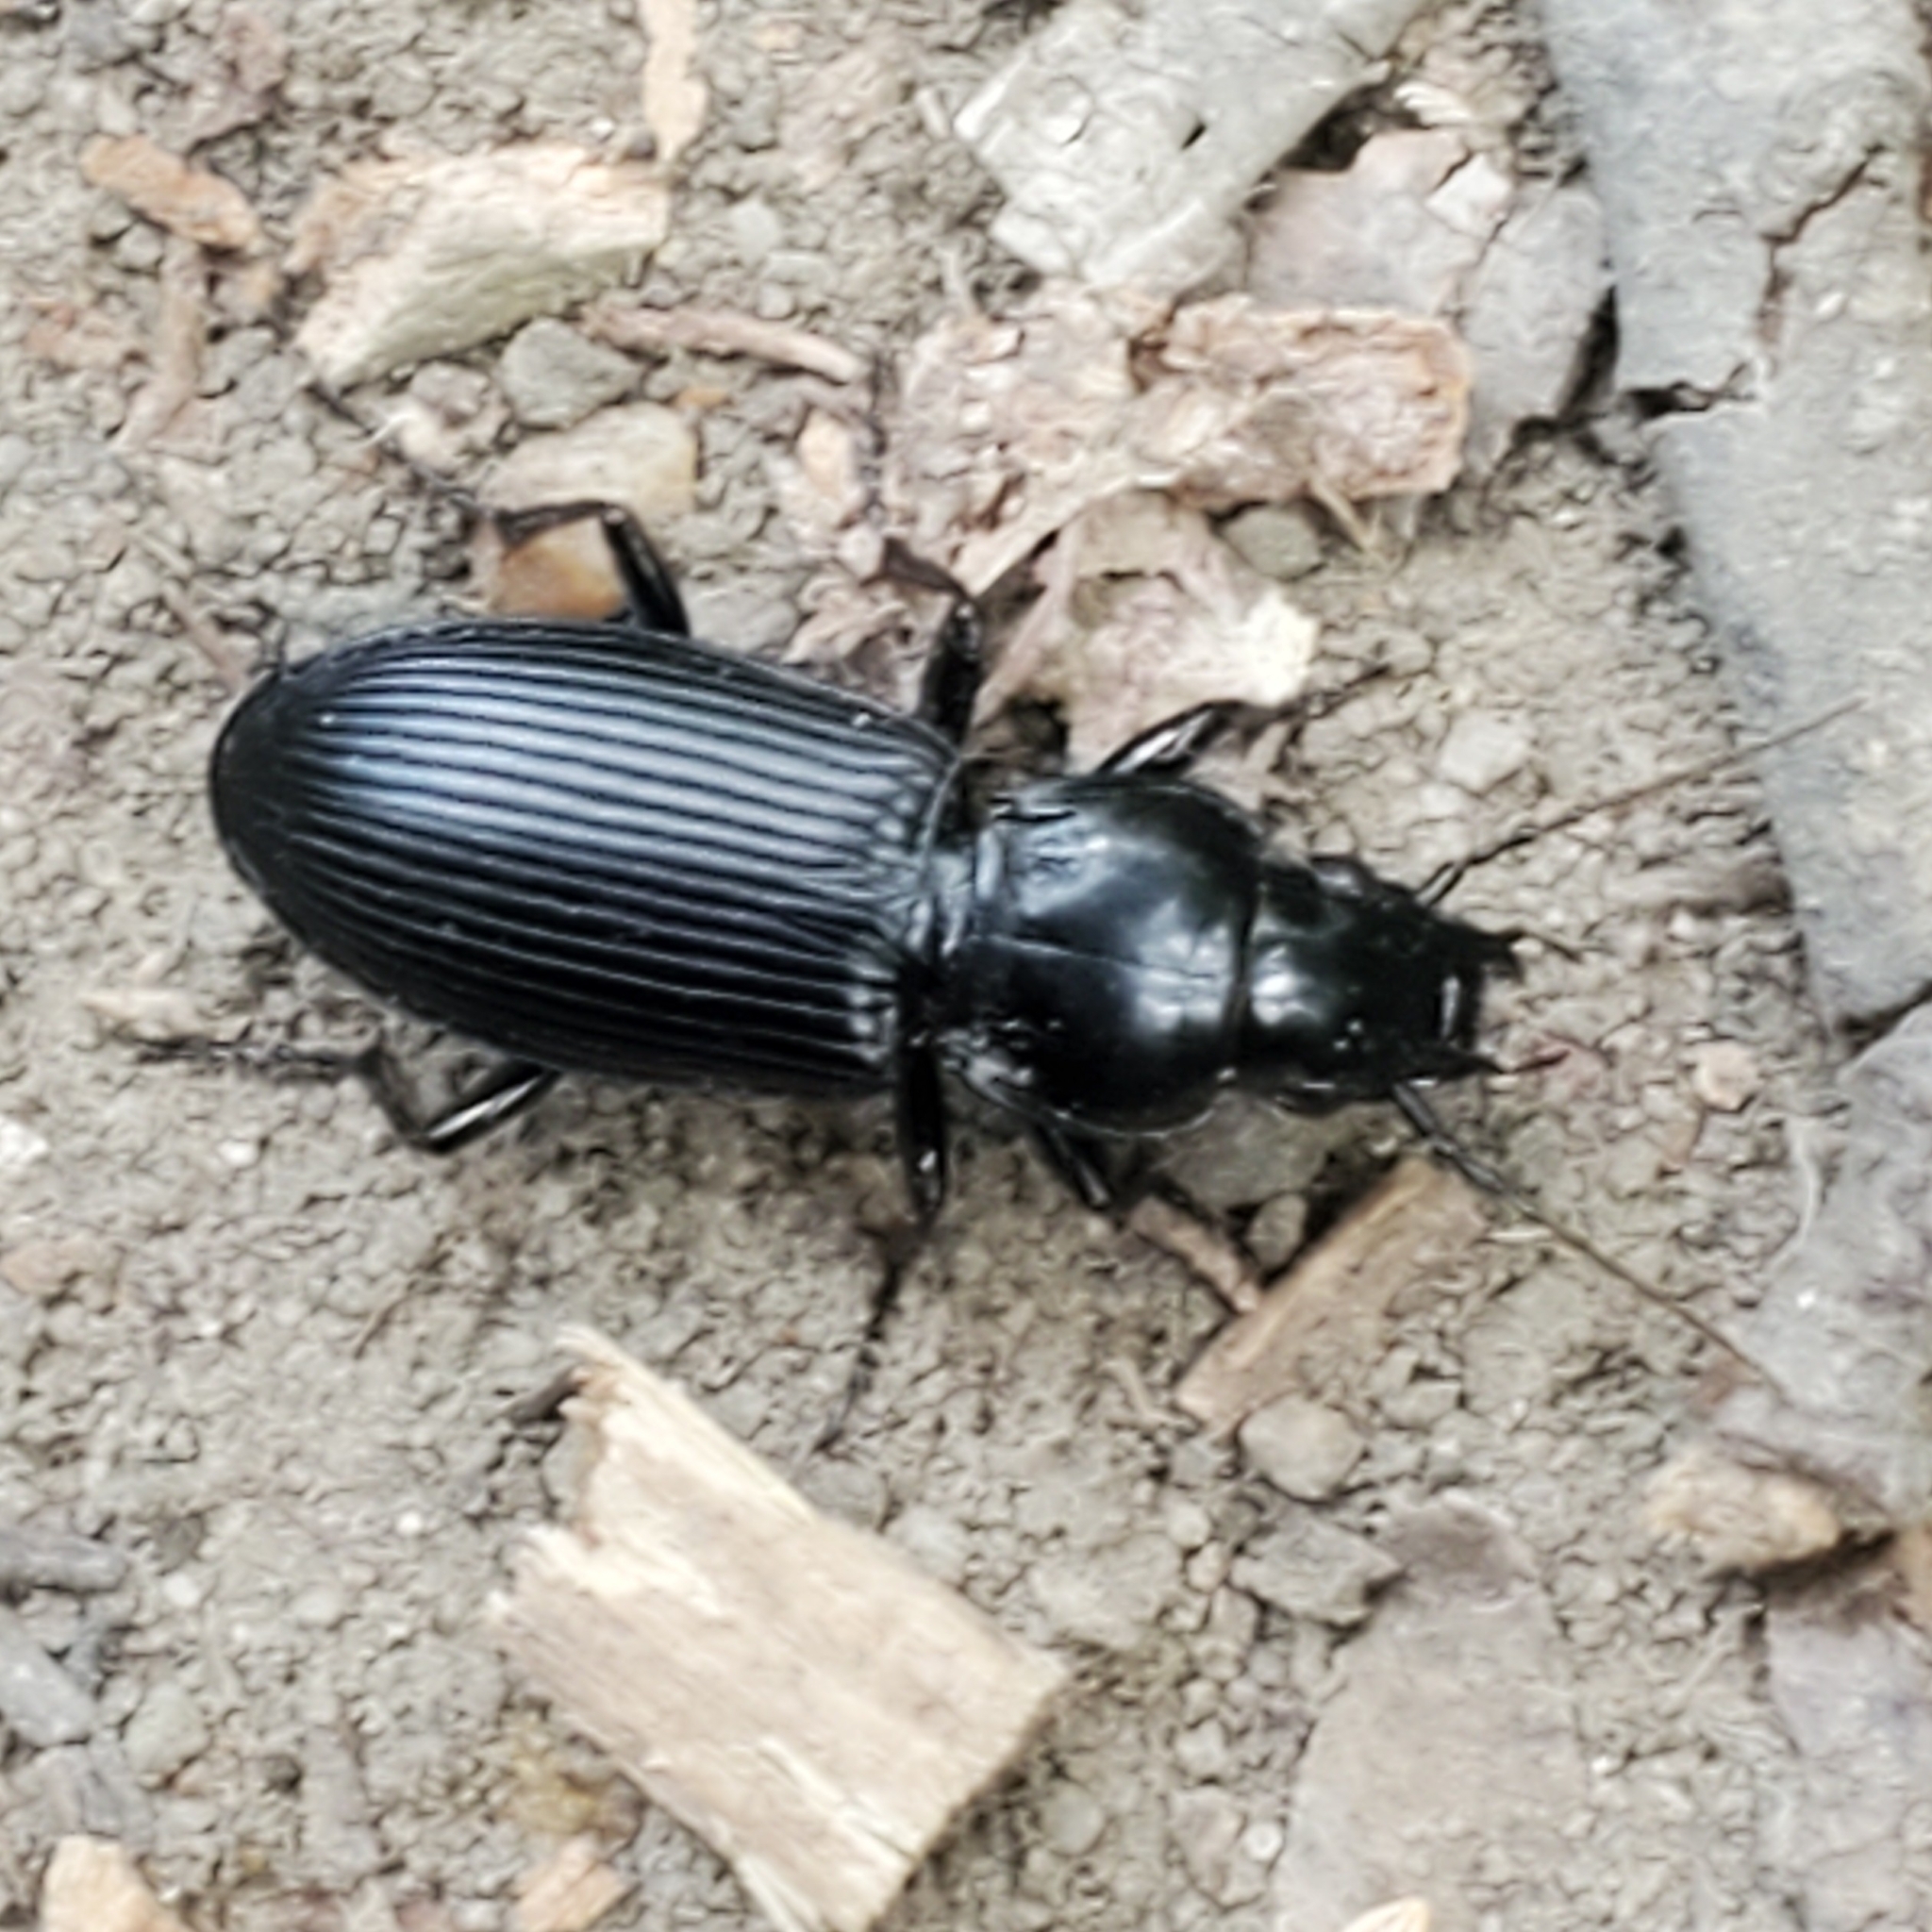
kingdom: Animalia
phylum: Arthropoda
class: Insecta
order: Coleoptera
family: Carabidae
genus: Pterostichus
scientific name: Pterostichus melanarius
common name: European dark harp ground beetle
